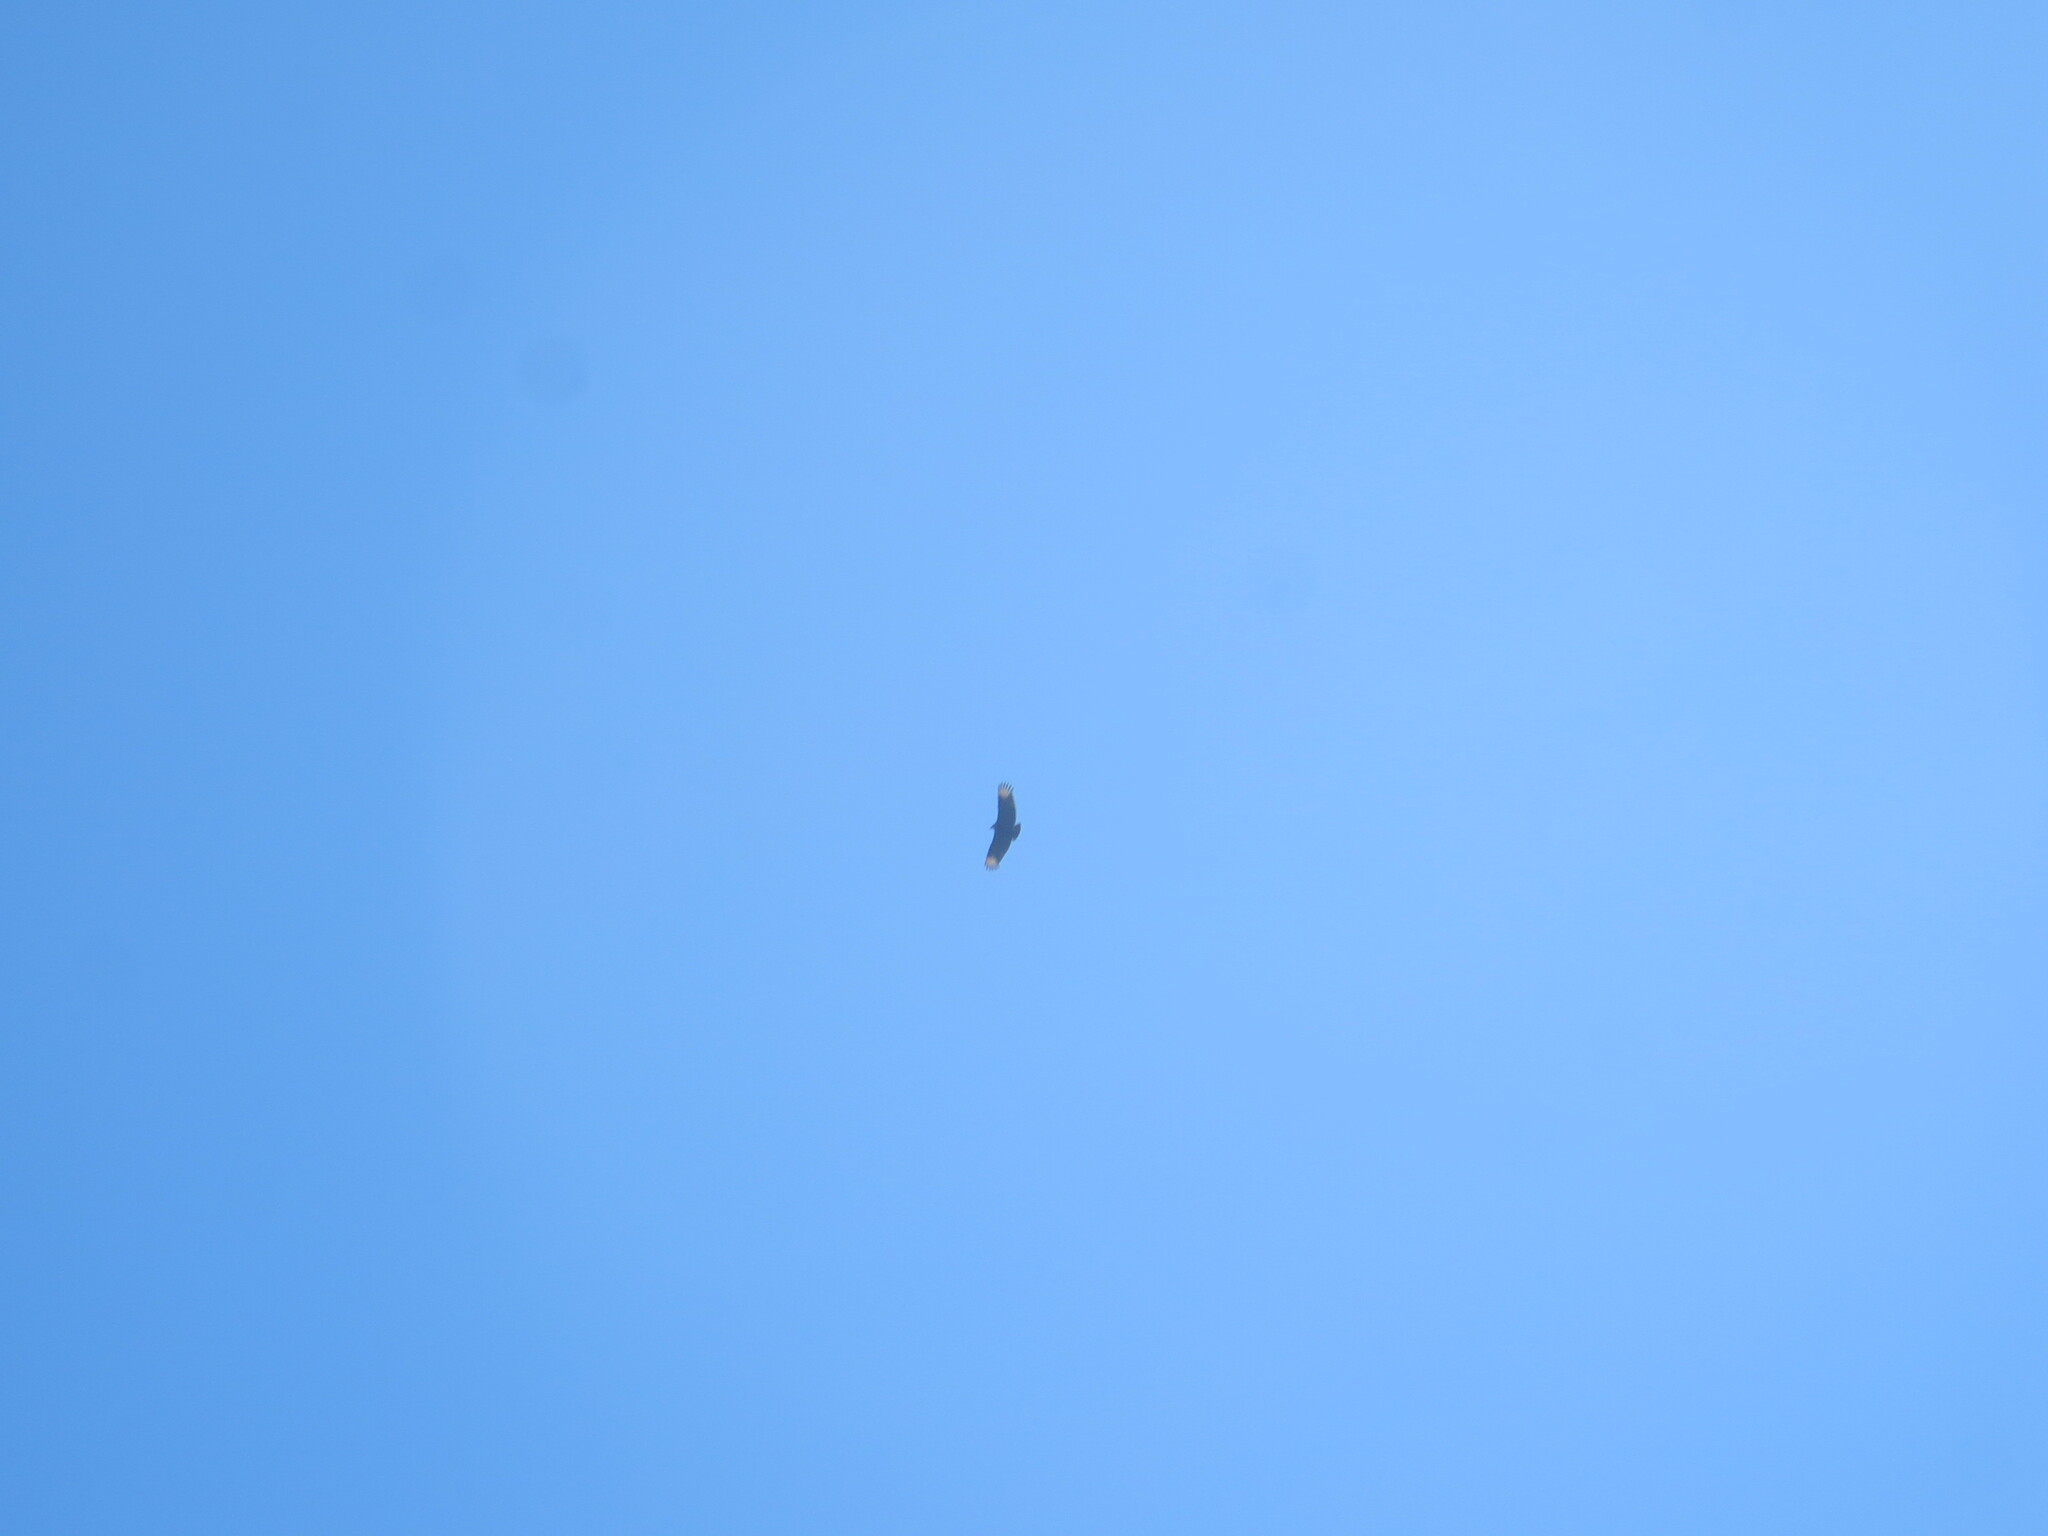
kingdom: Animalia
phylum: Chordata
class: Aves
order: Accipitriformes
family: Cathartidae
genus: Coragyps
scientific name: Coragyps atratus
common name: Black vulture
